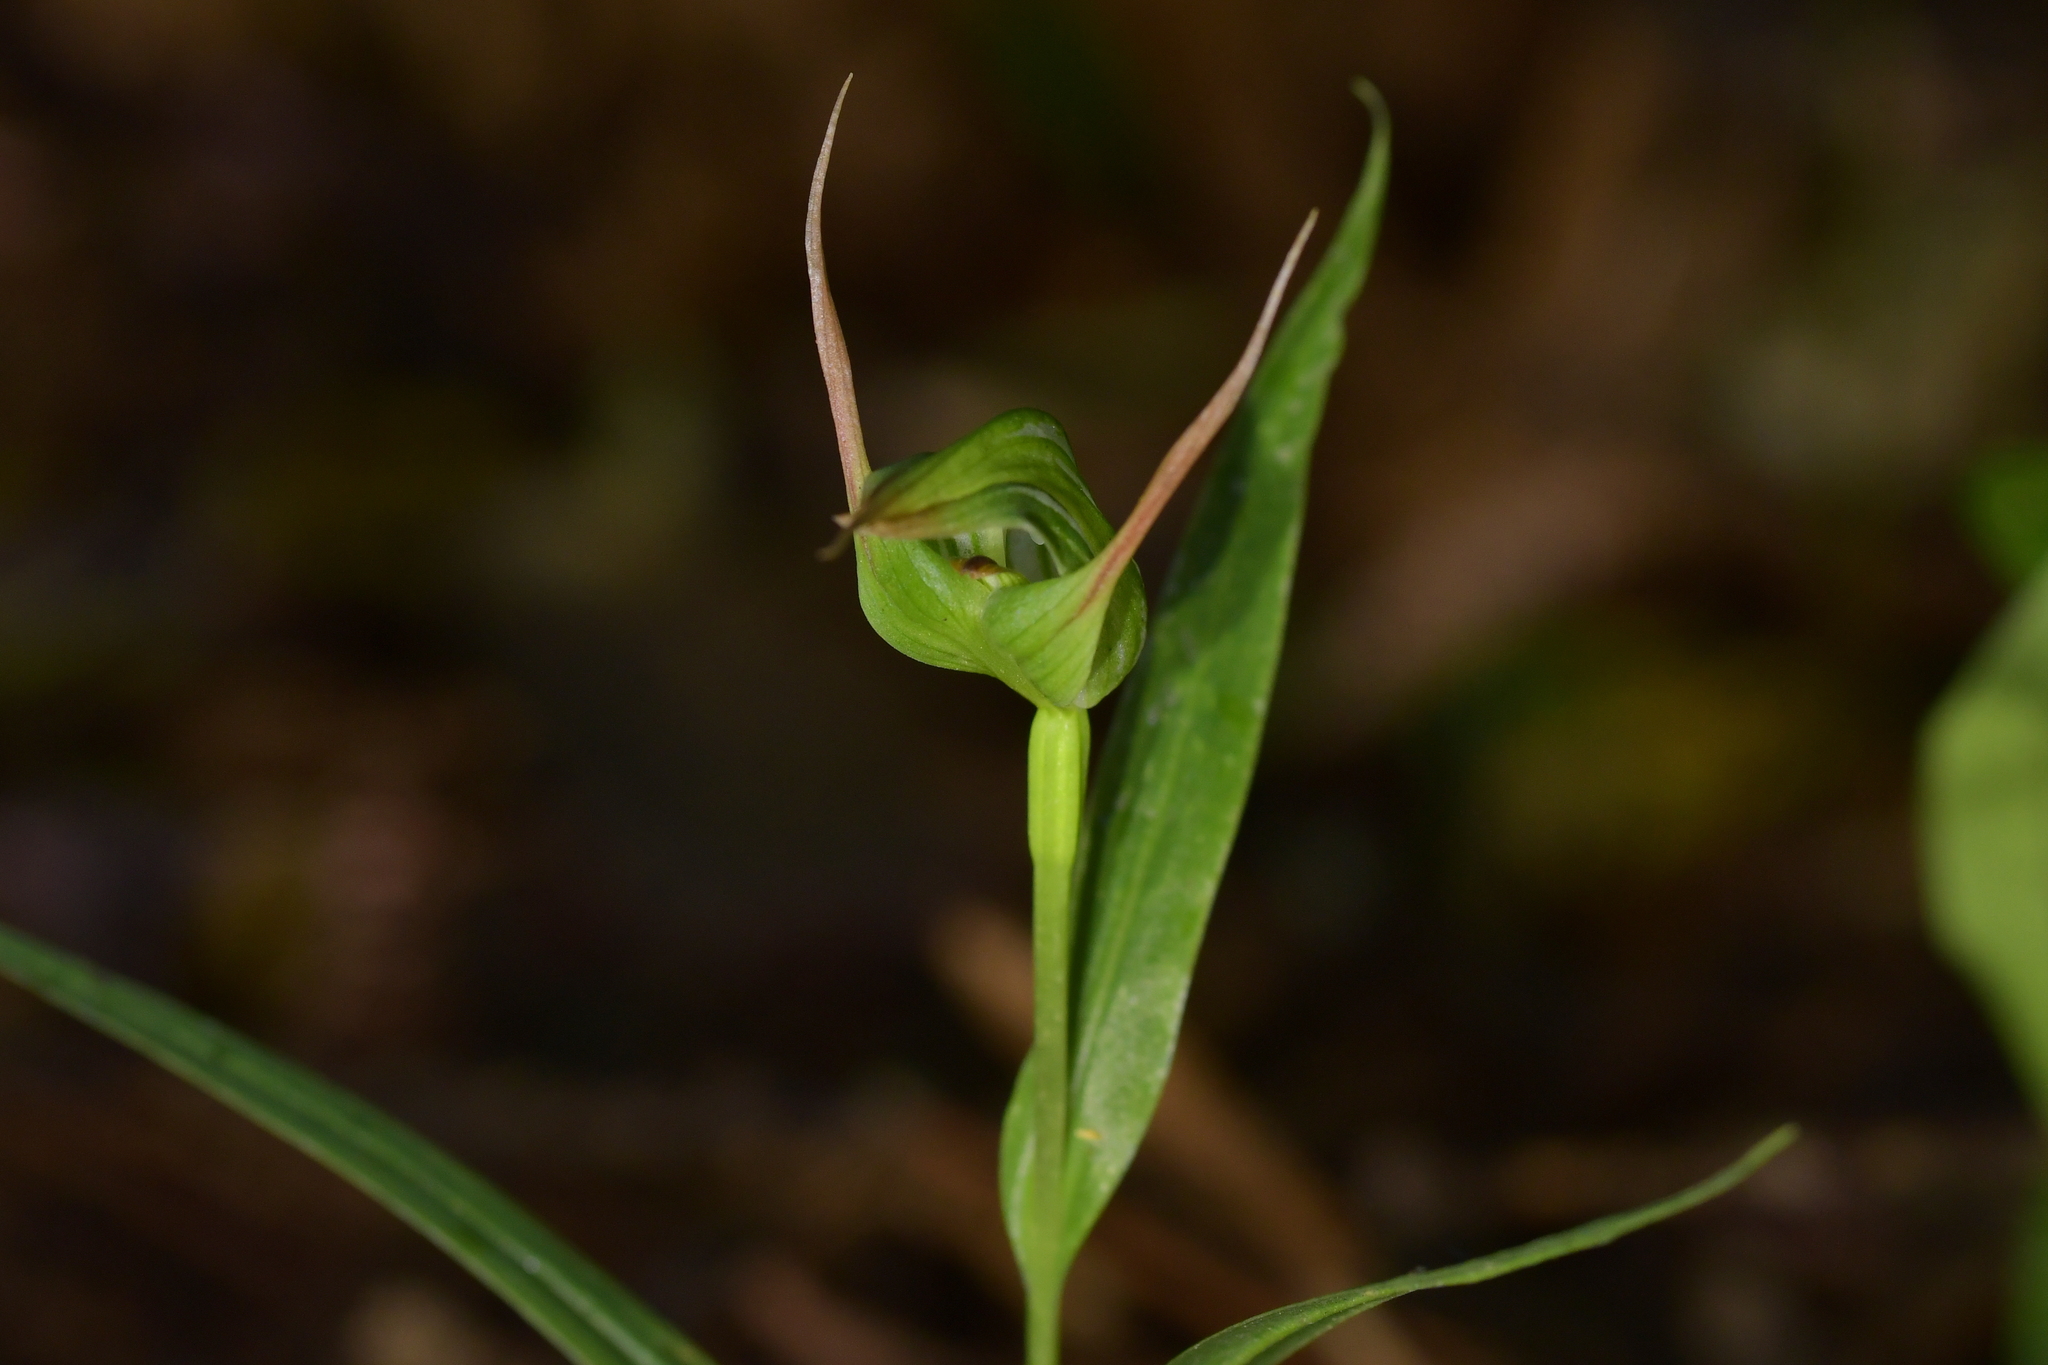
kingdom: Plantae
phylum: Tracheophyta
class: Liliopsida
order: Asparagales
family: Orchidaceae
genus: Pterostylis
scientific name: Pterostylis banksii
